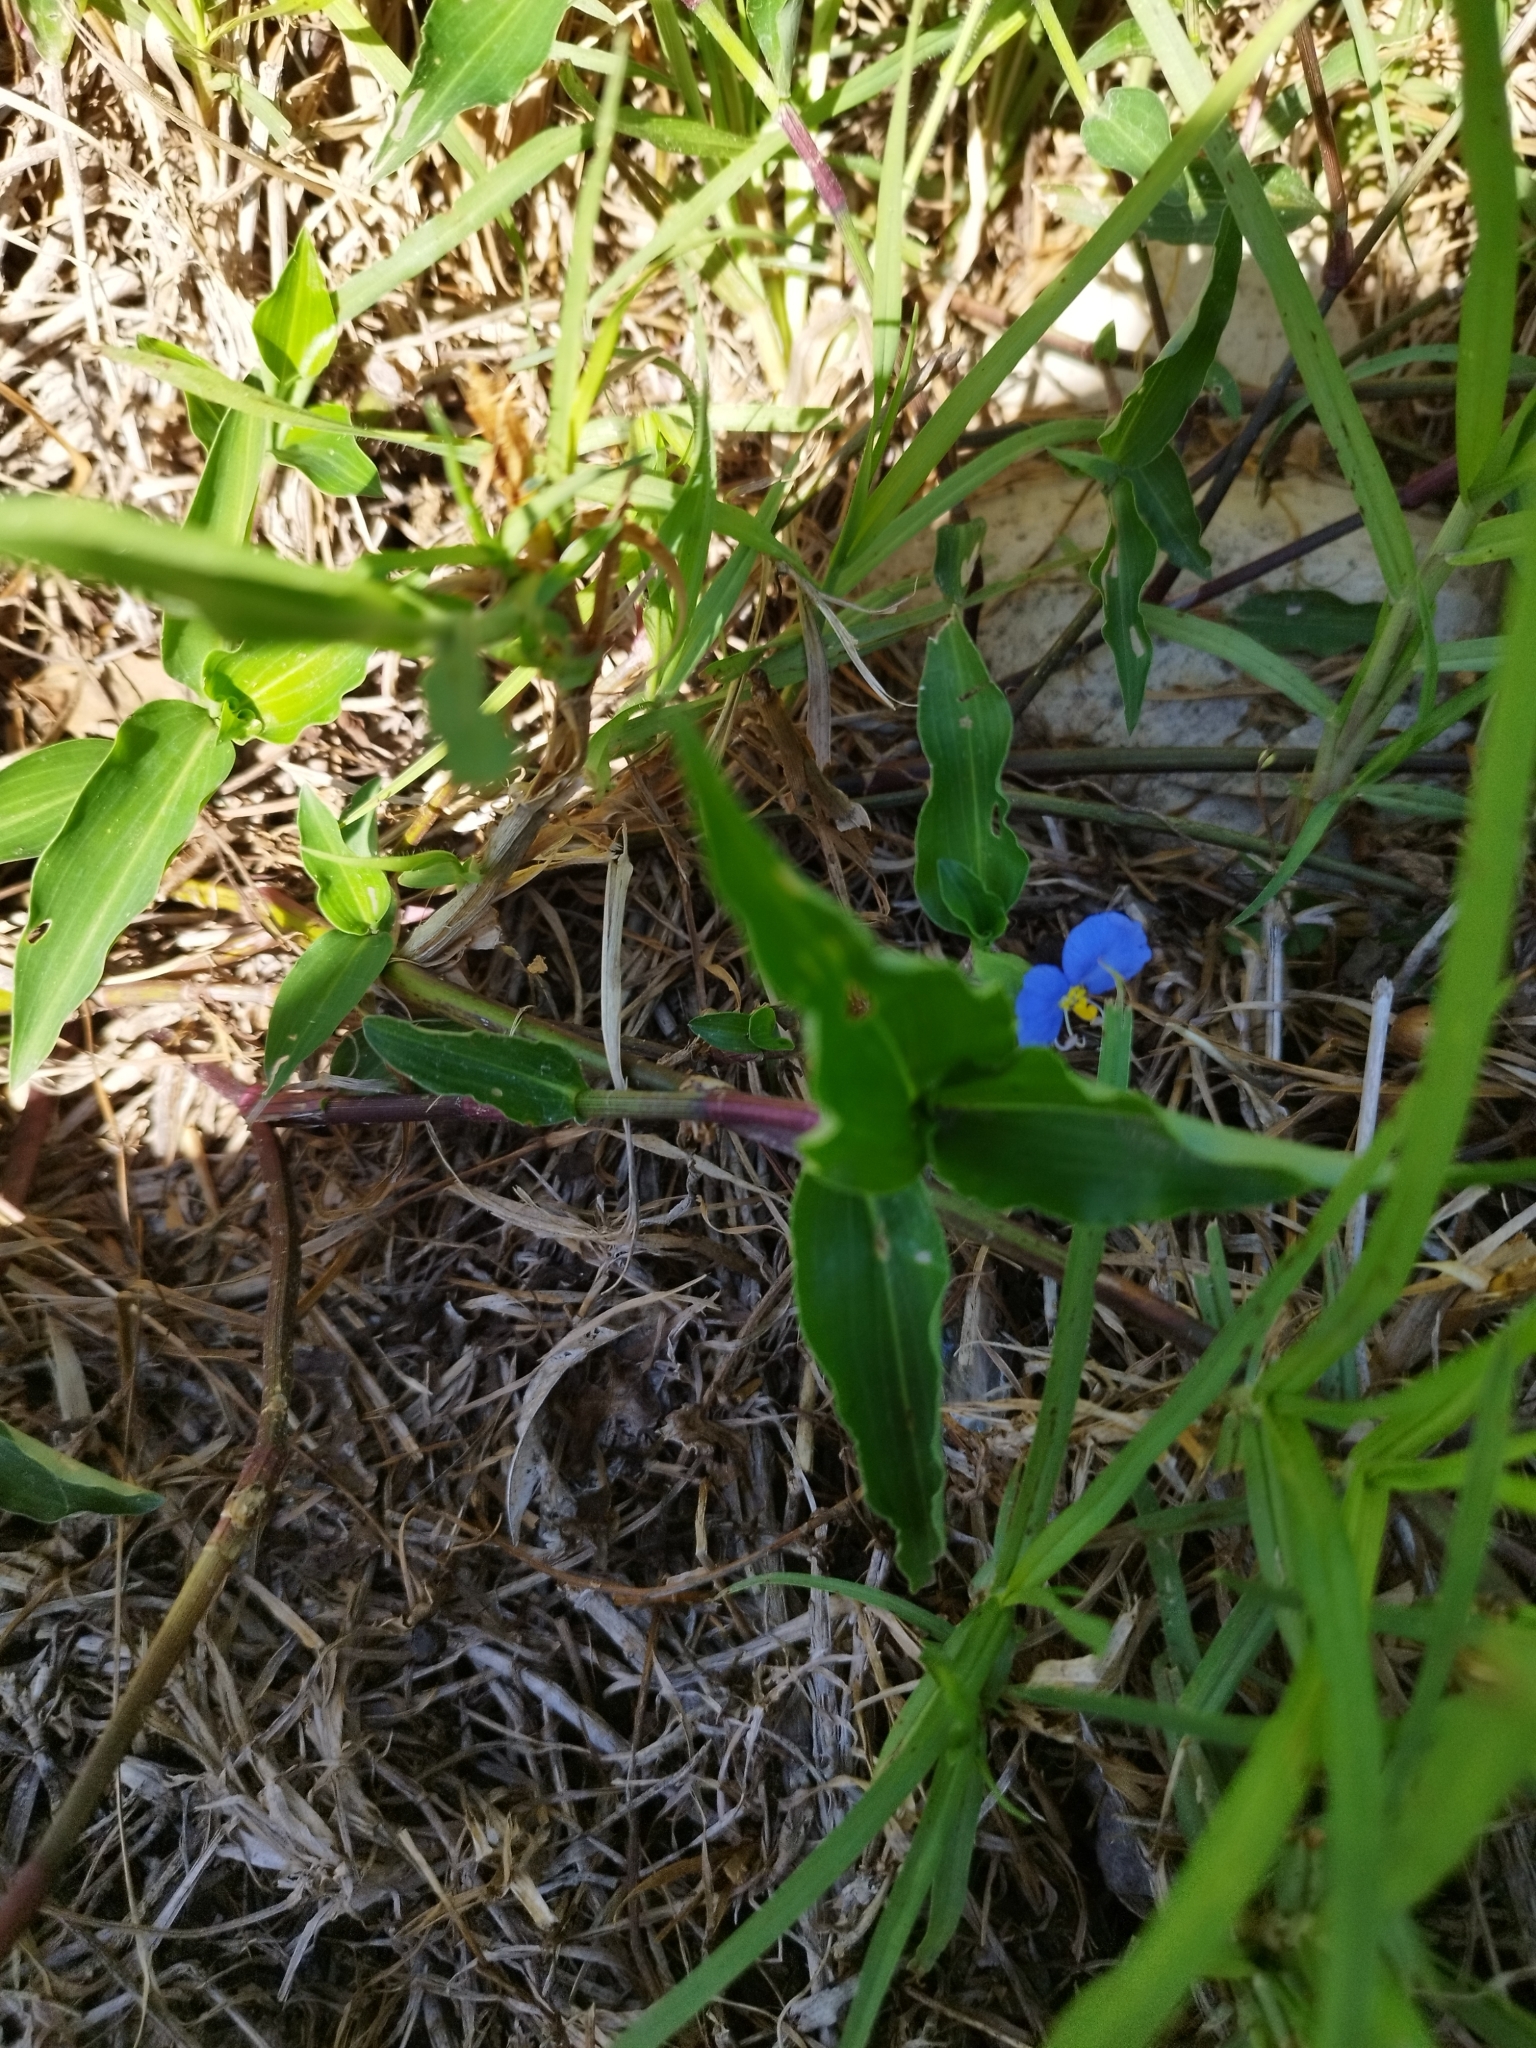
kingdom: Plantae
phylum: Tracheophyta
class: Liliopsida
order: Commelinales
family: Commelinaceae
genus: Commelina
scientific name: Commelina erecta
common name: Blousel blommetjie
